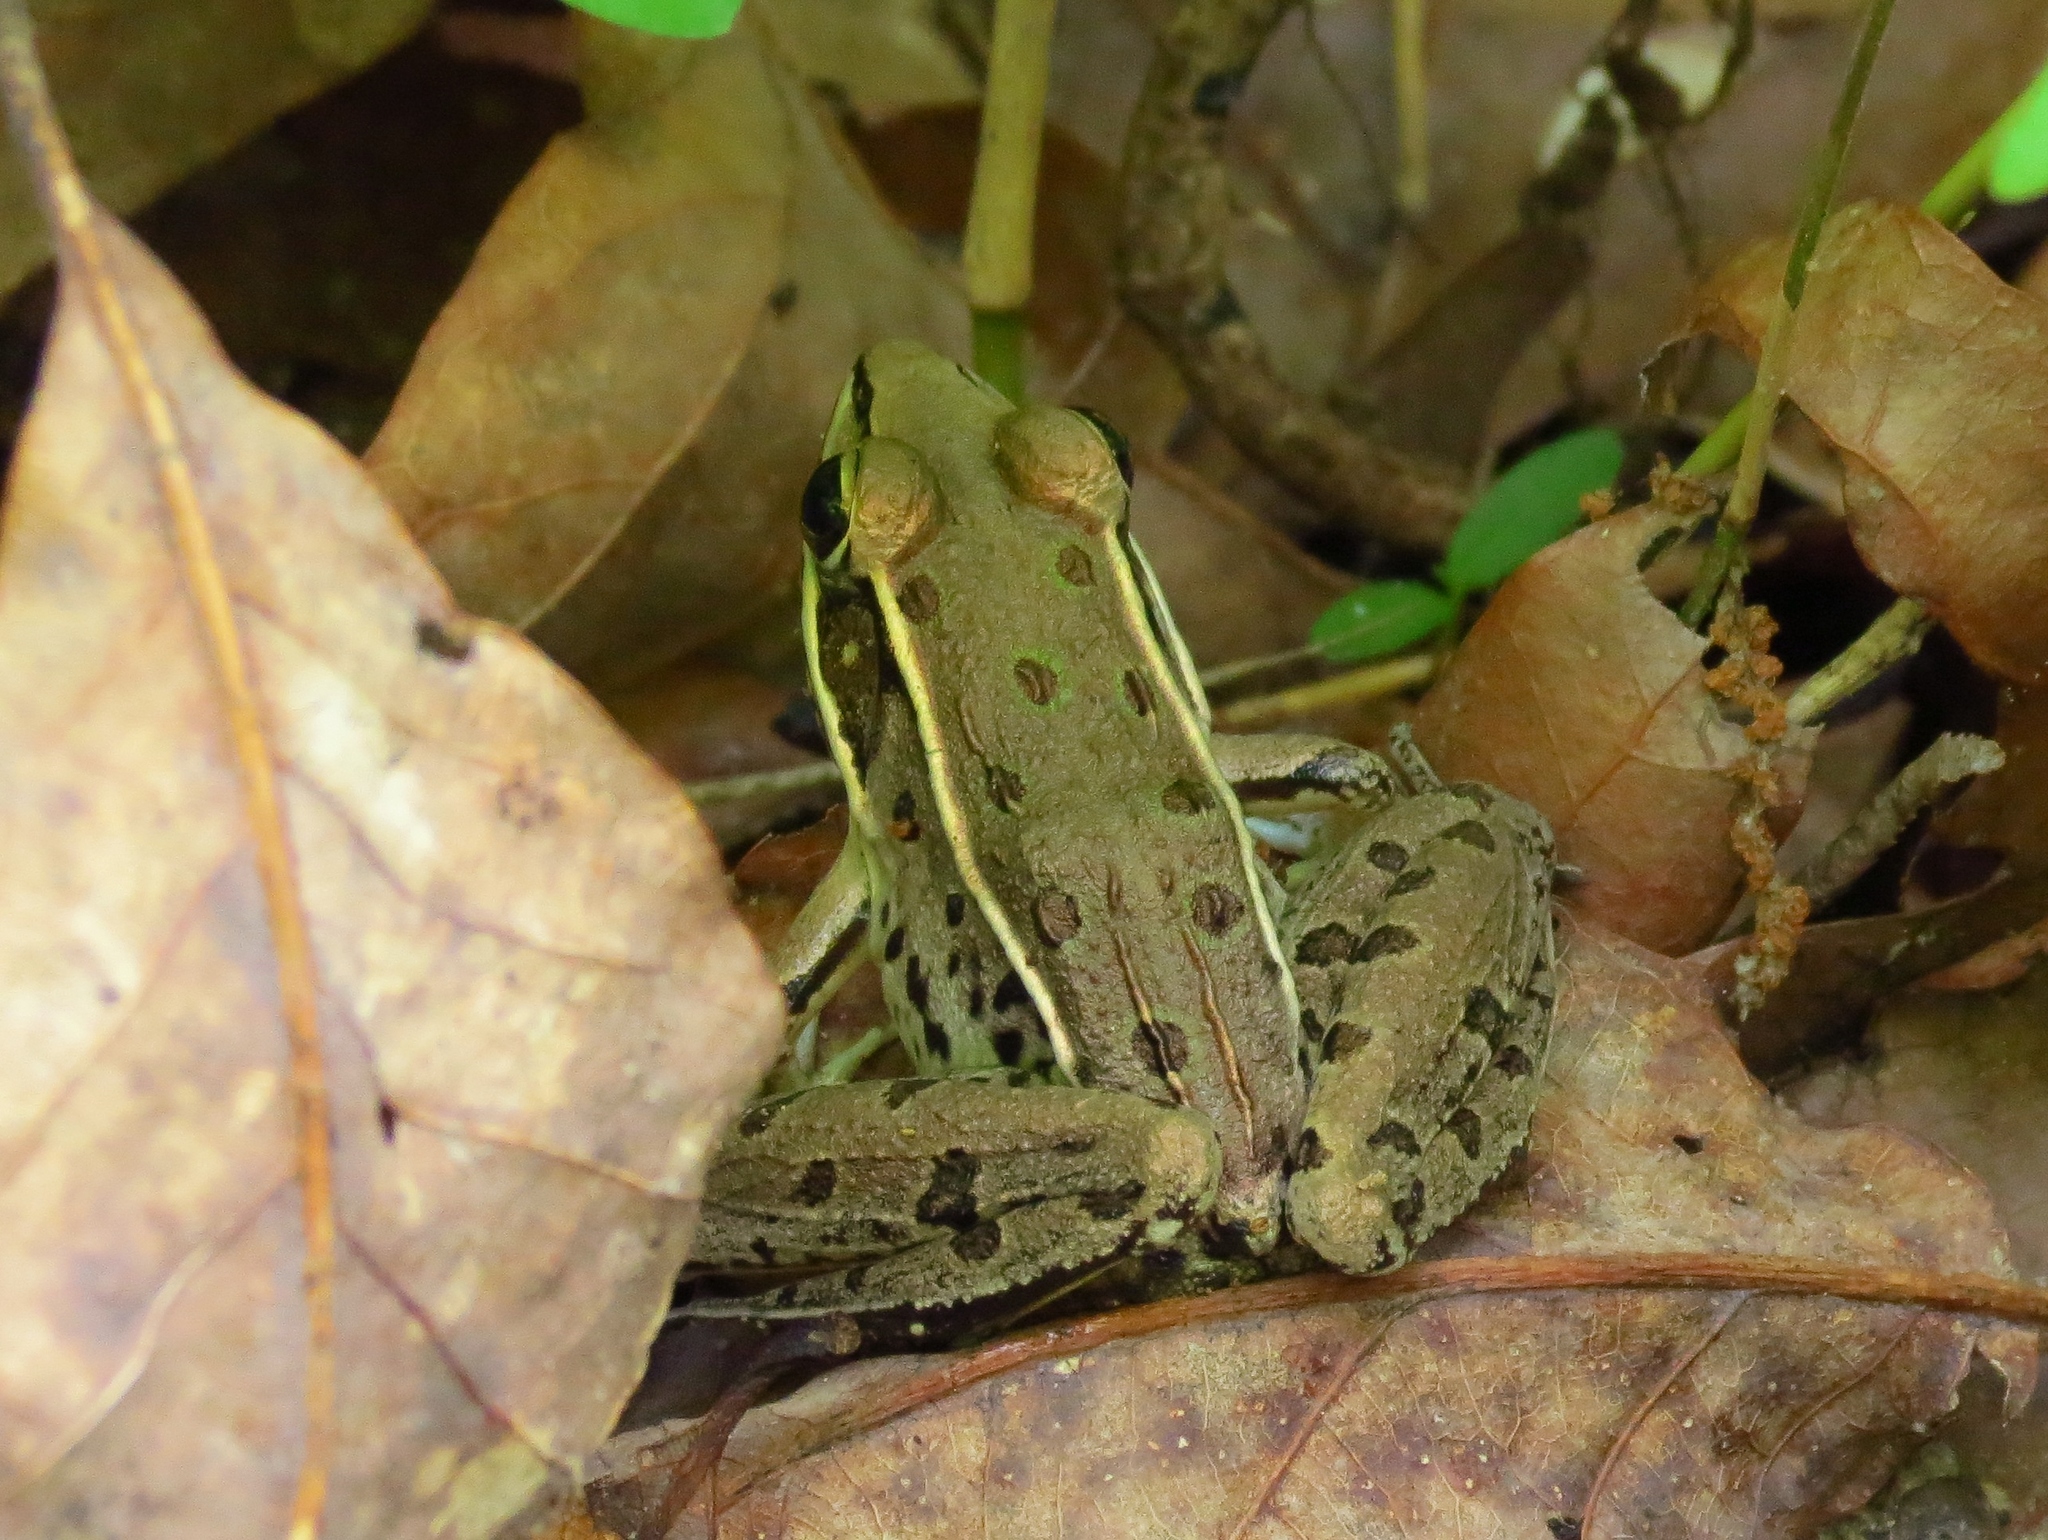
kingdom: Animalia
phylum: Chordata
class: Amphibia
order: Anura
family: Ranidae
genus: Lithobates
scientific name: Lithobates sphenocephalus
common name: Southern leopard frog
